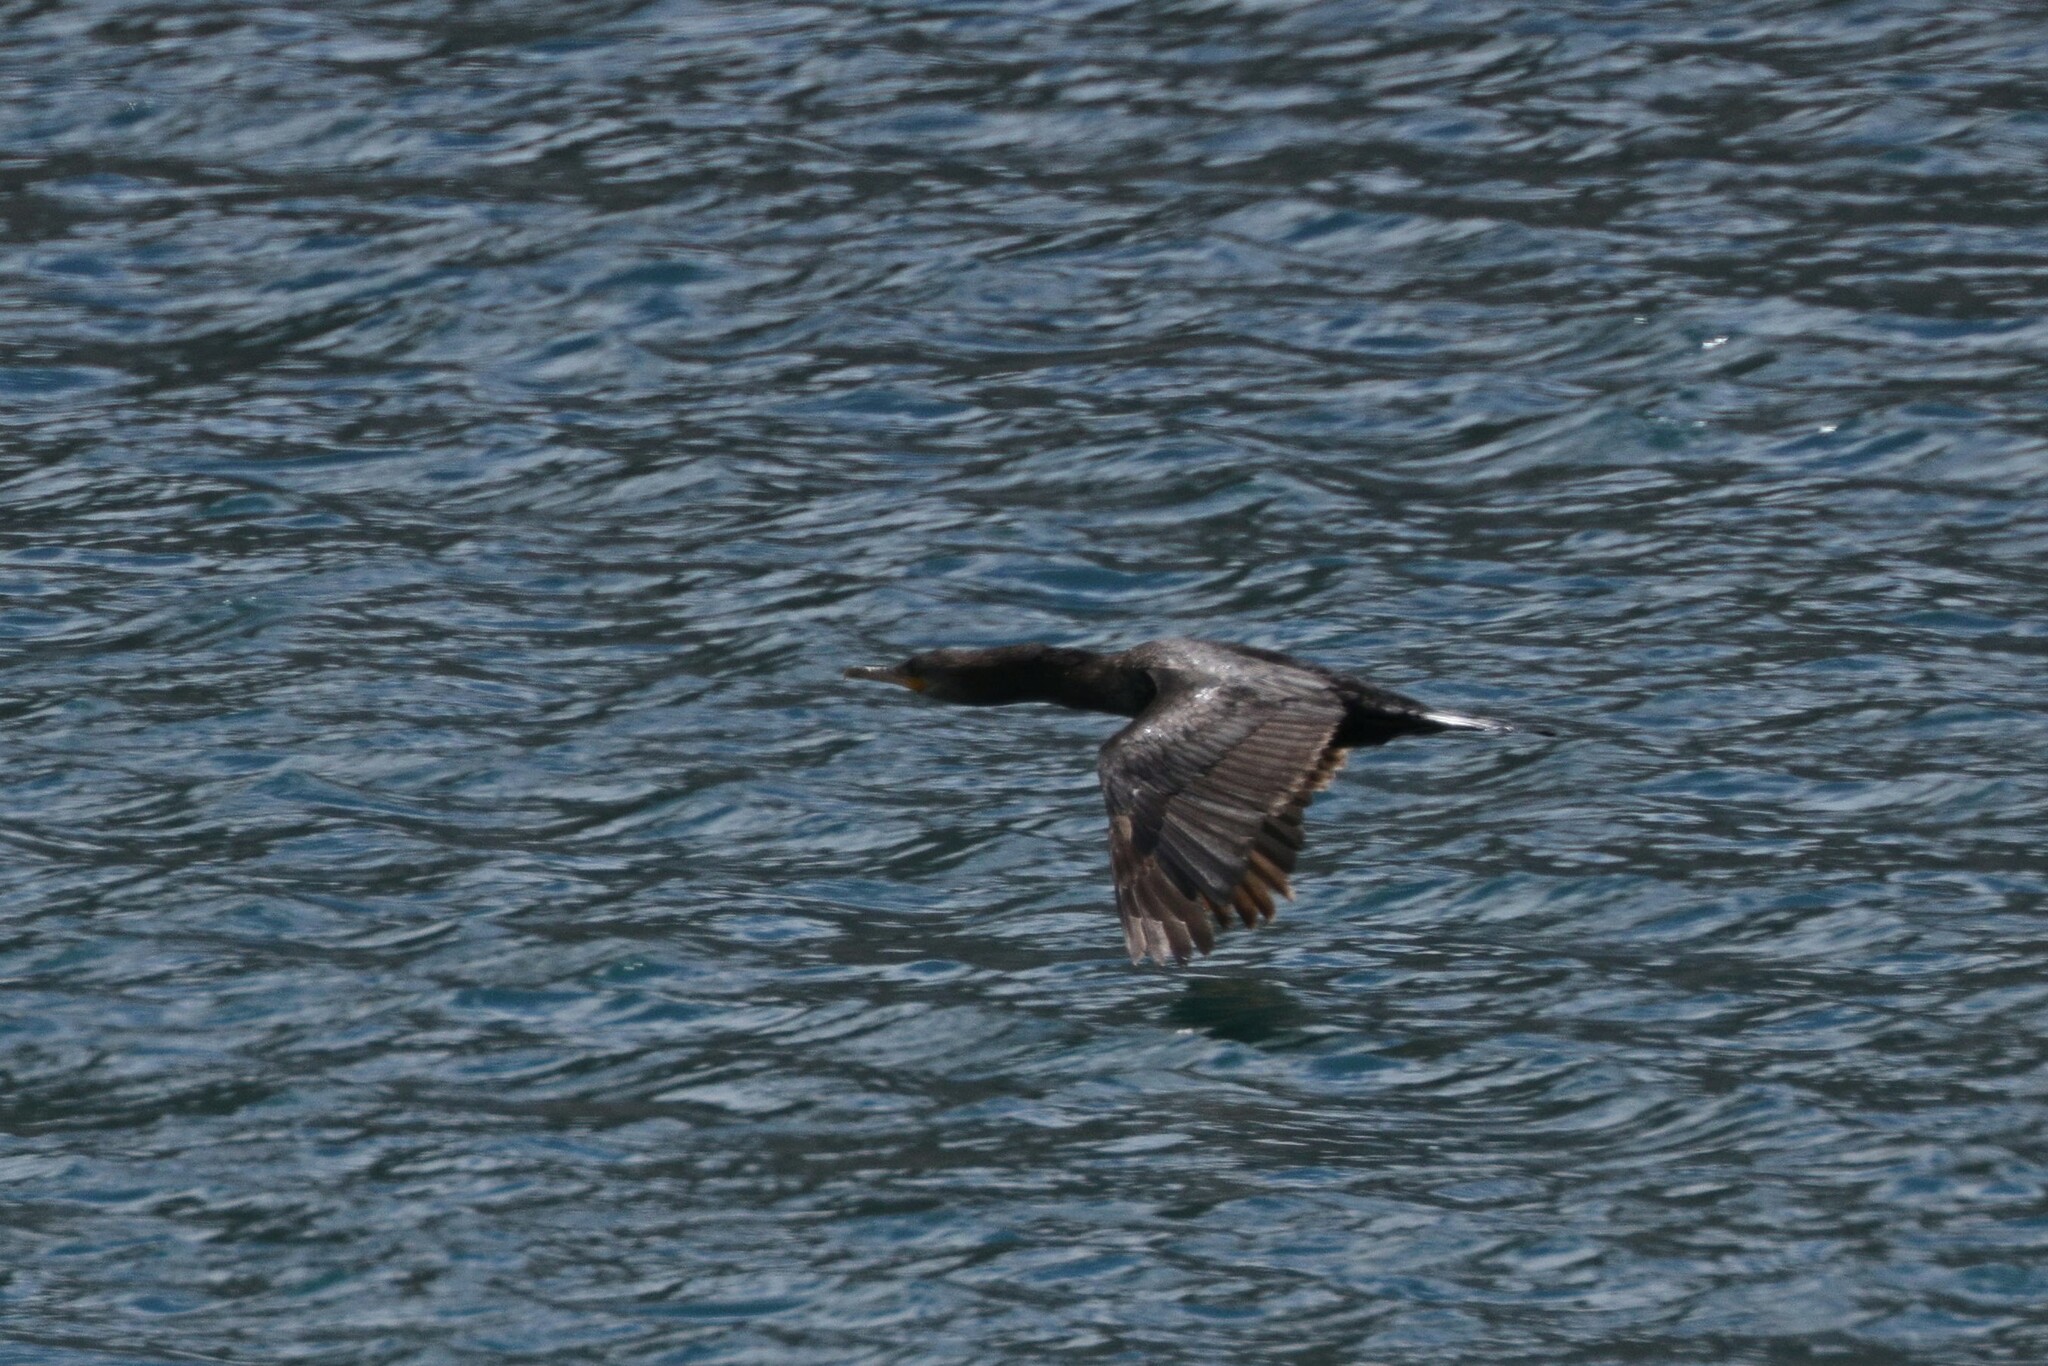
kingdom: Animalia
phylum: Chordata
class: Aves
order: Suliformes
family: Phalacrocoracidae
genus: Phalacrocorax
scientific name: Phalacrocorax brasilianus
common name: Neotropic cormorant
